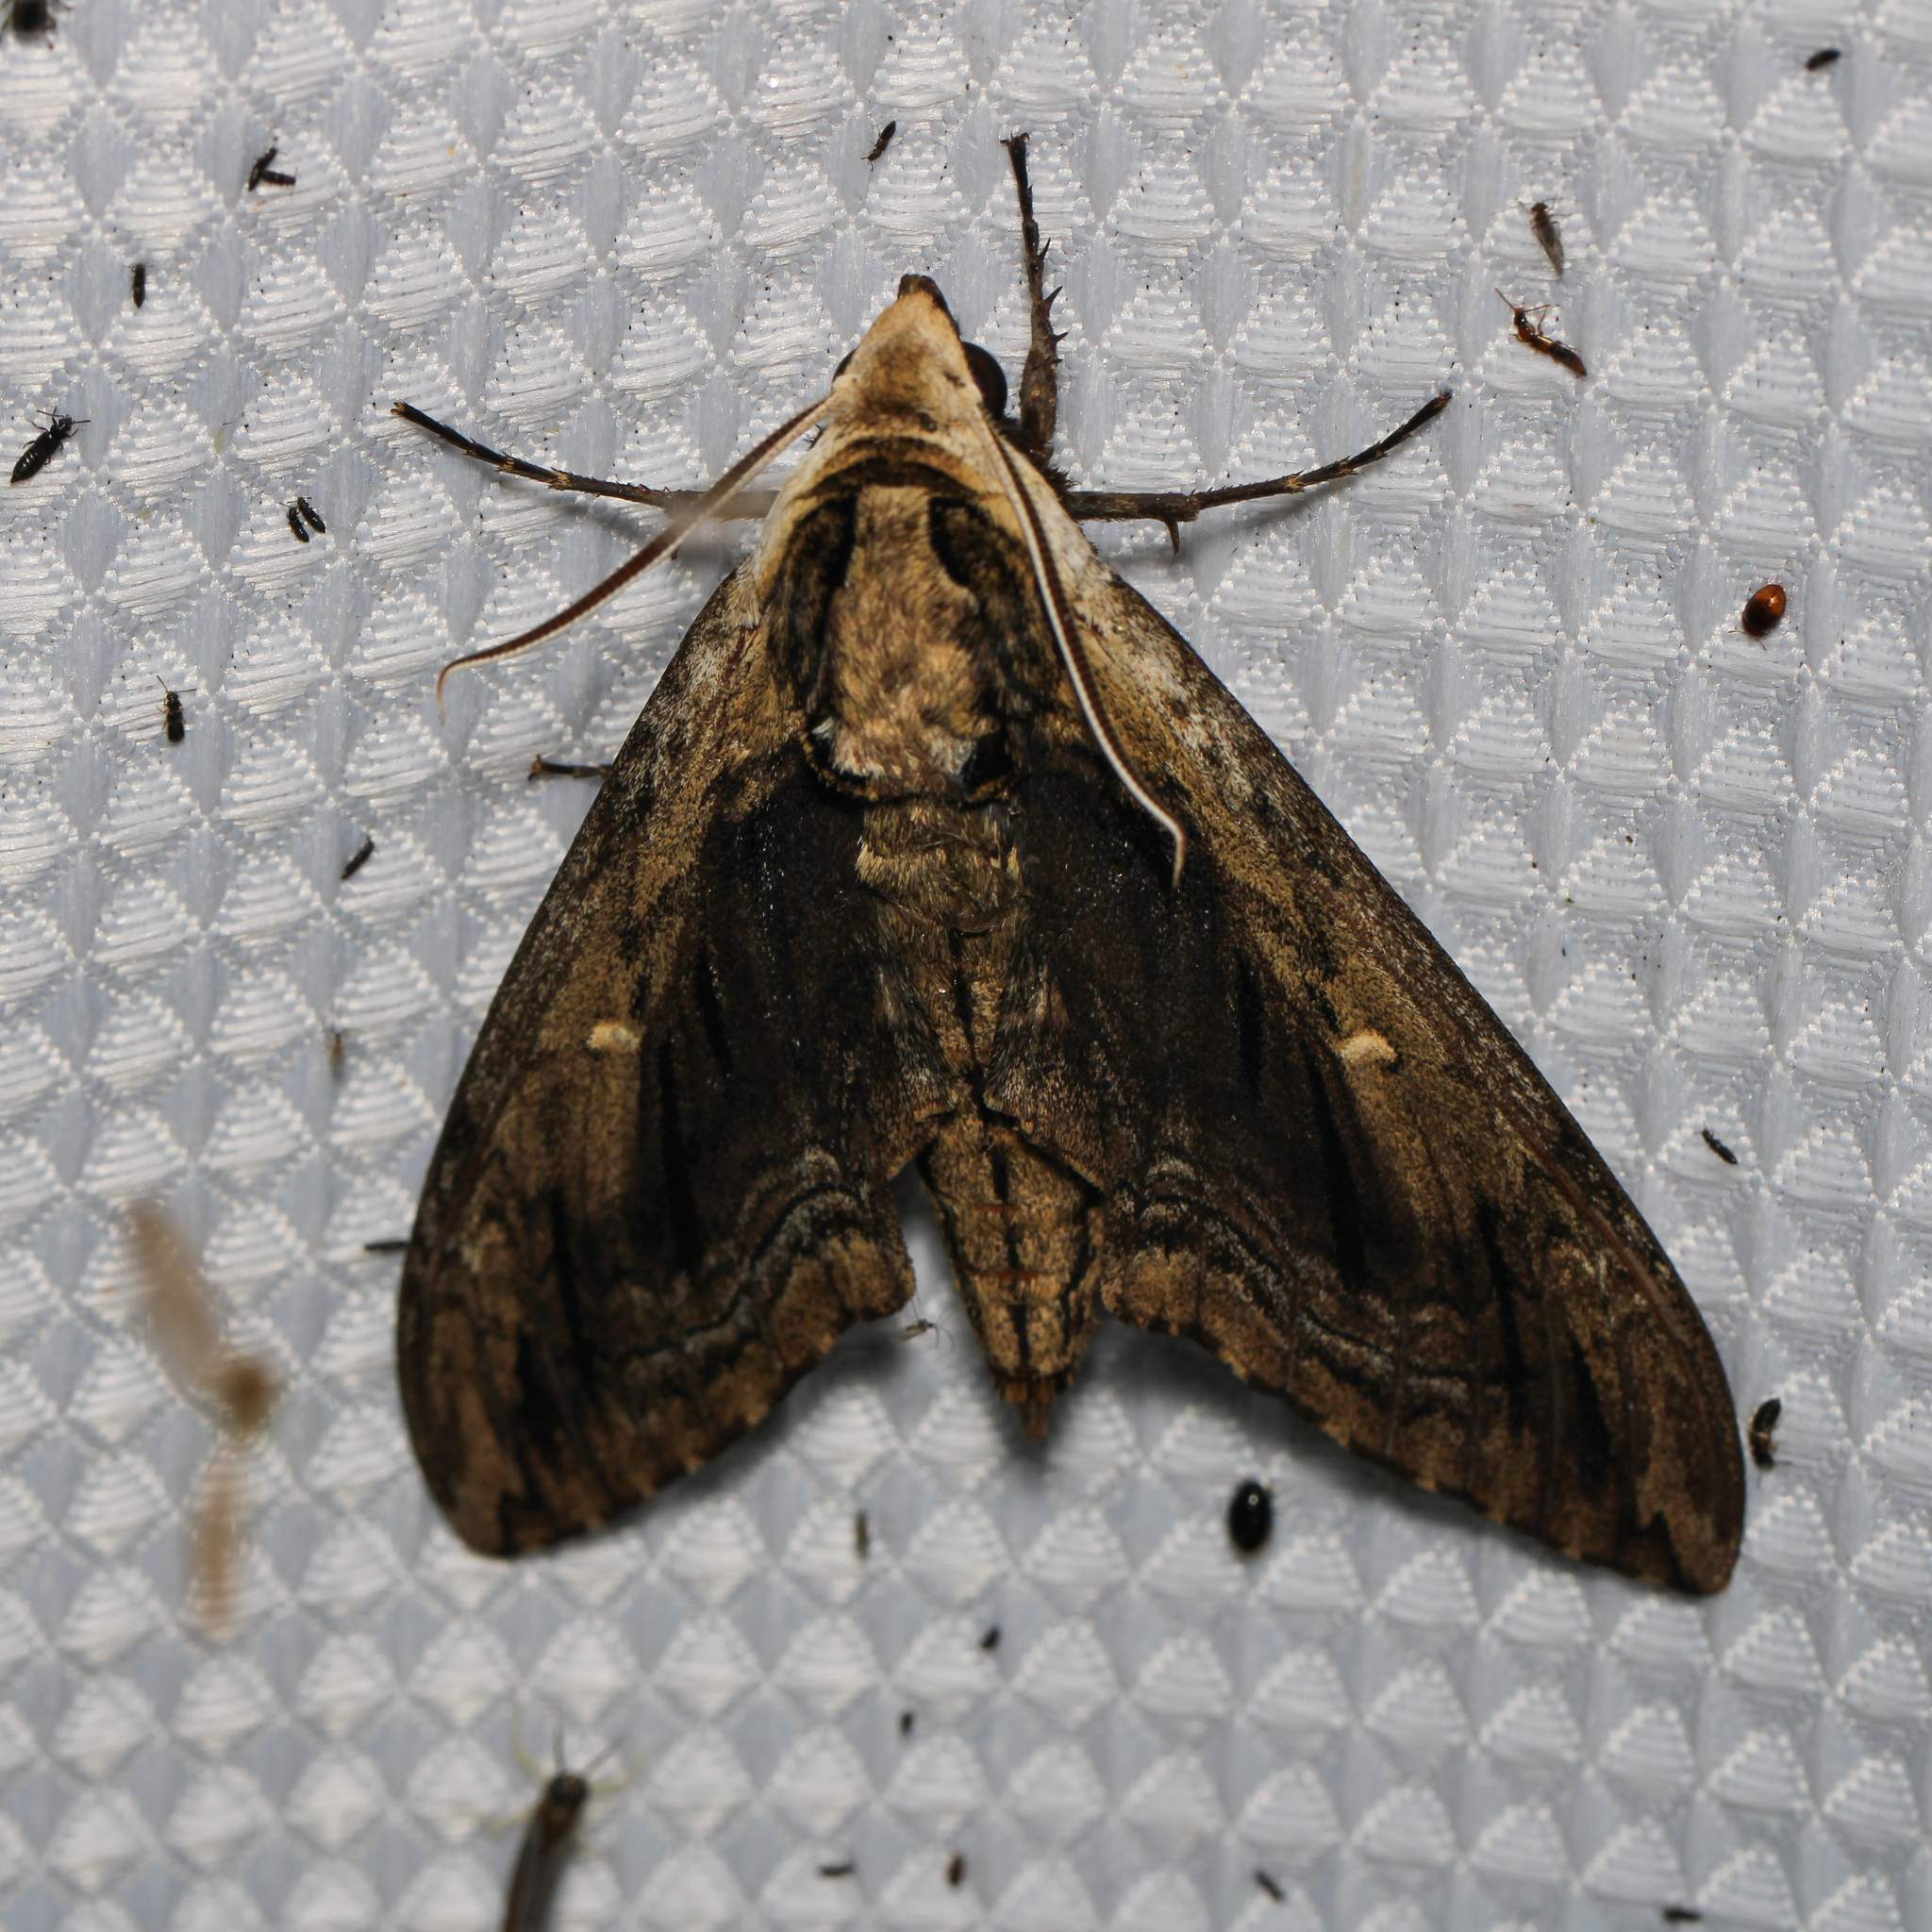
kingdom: Animalia
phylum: Arthropoda
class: Insecta
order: Lepidoptera
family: Sphingidae
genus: Ceratomia
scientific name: Ceratomia amyntor
